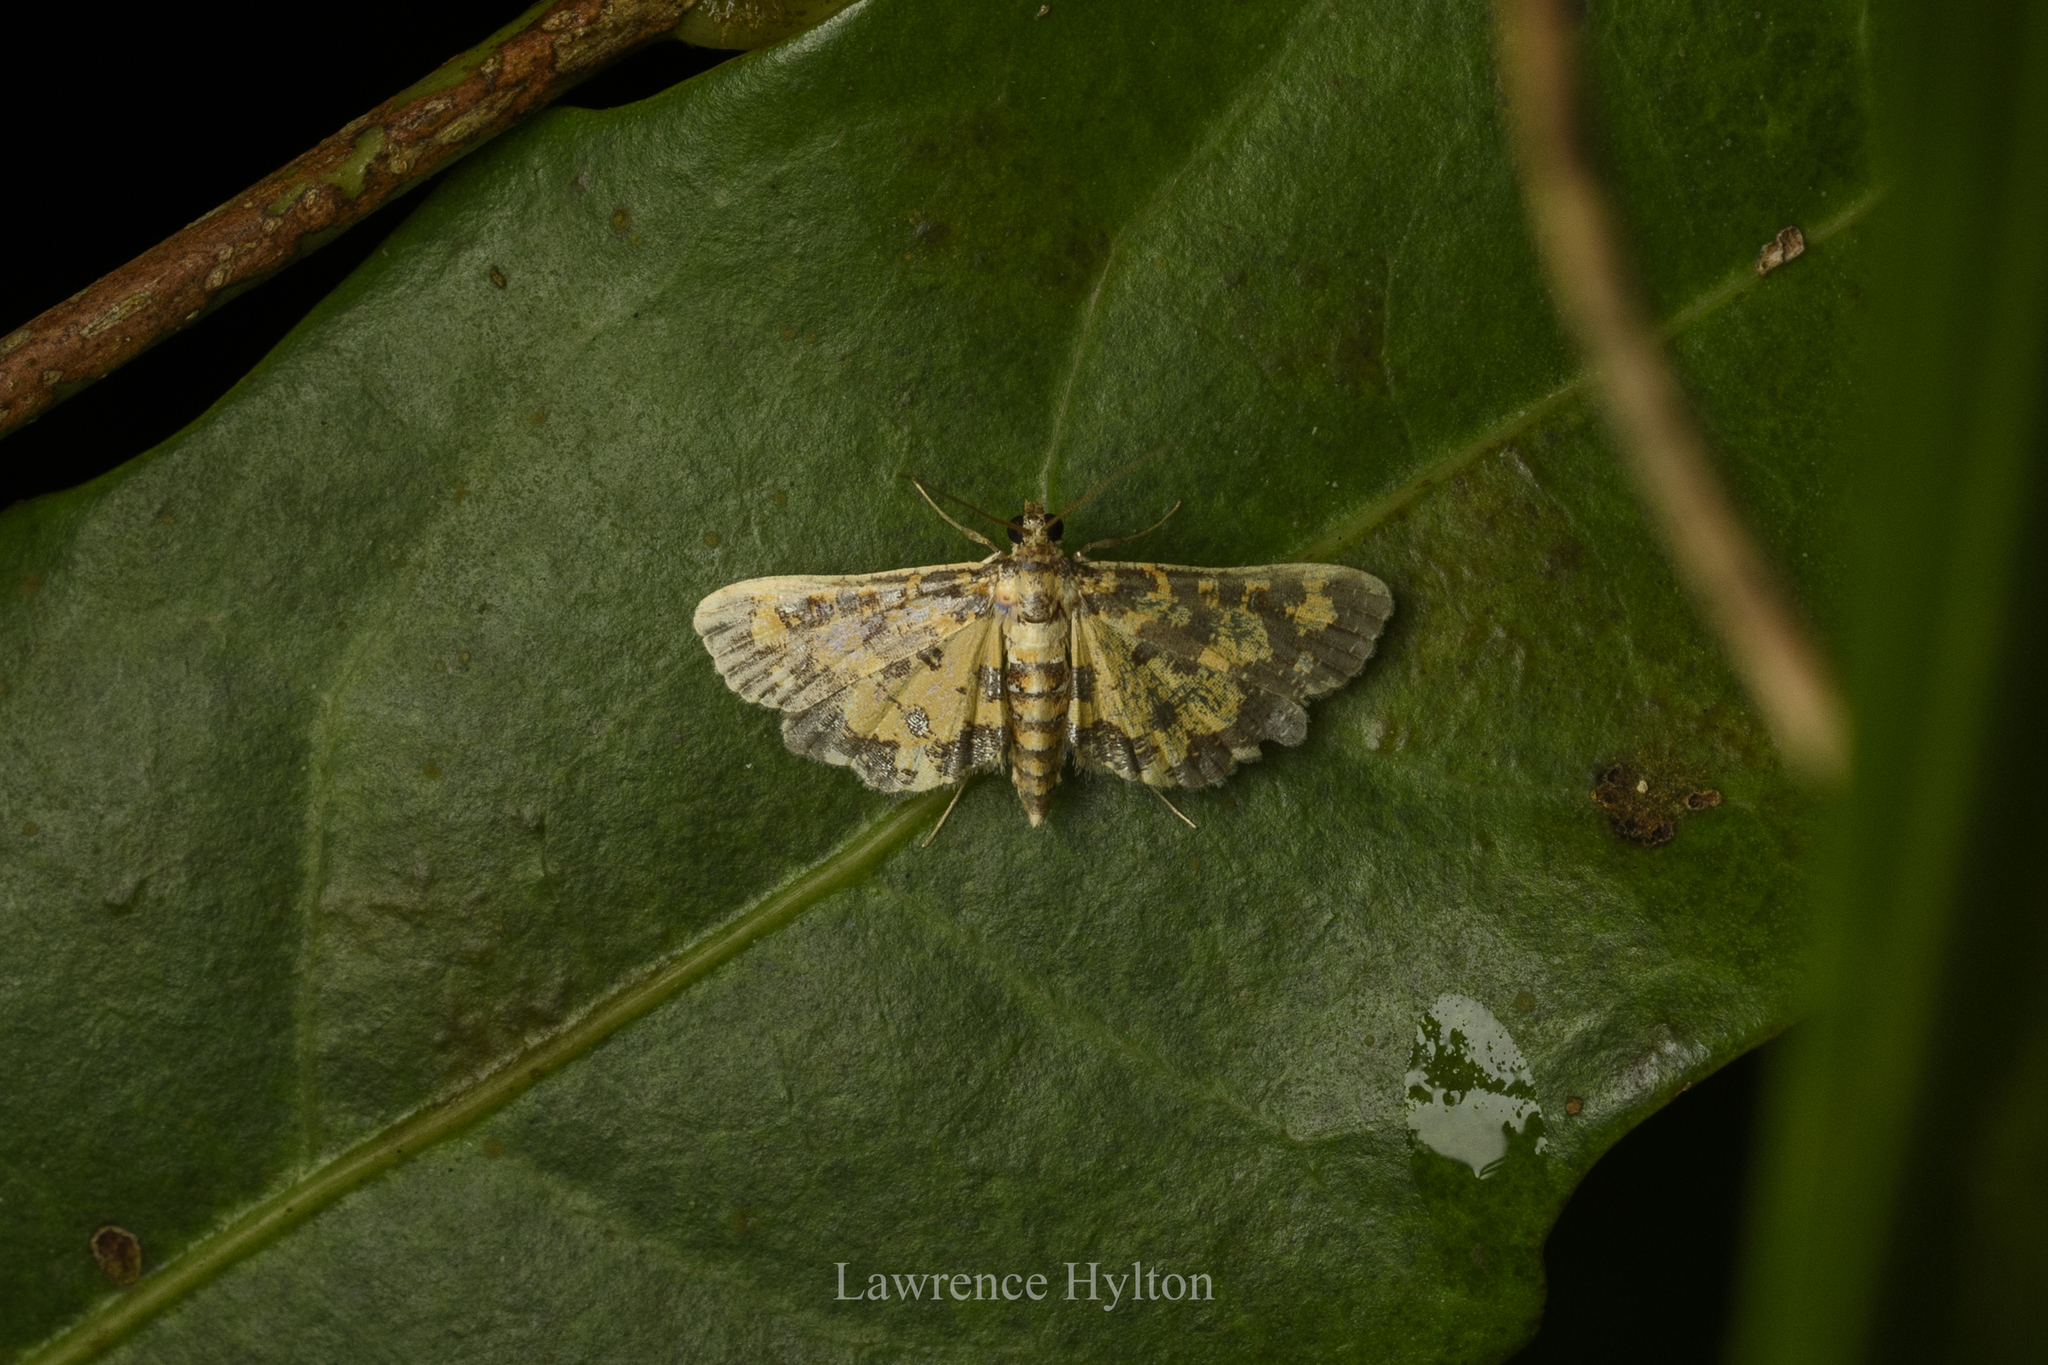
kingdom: Animalia
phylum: Arthropoda
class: Insecta
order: Lepidoptera
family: Crambidae
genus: Eurrhyparodes
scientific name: Eurrhyparodes tricoloralis
